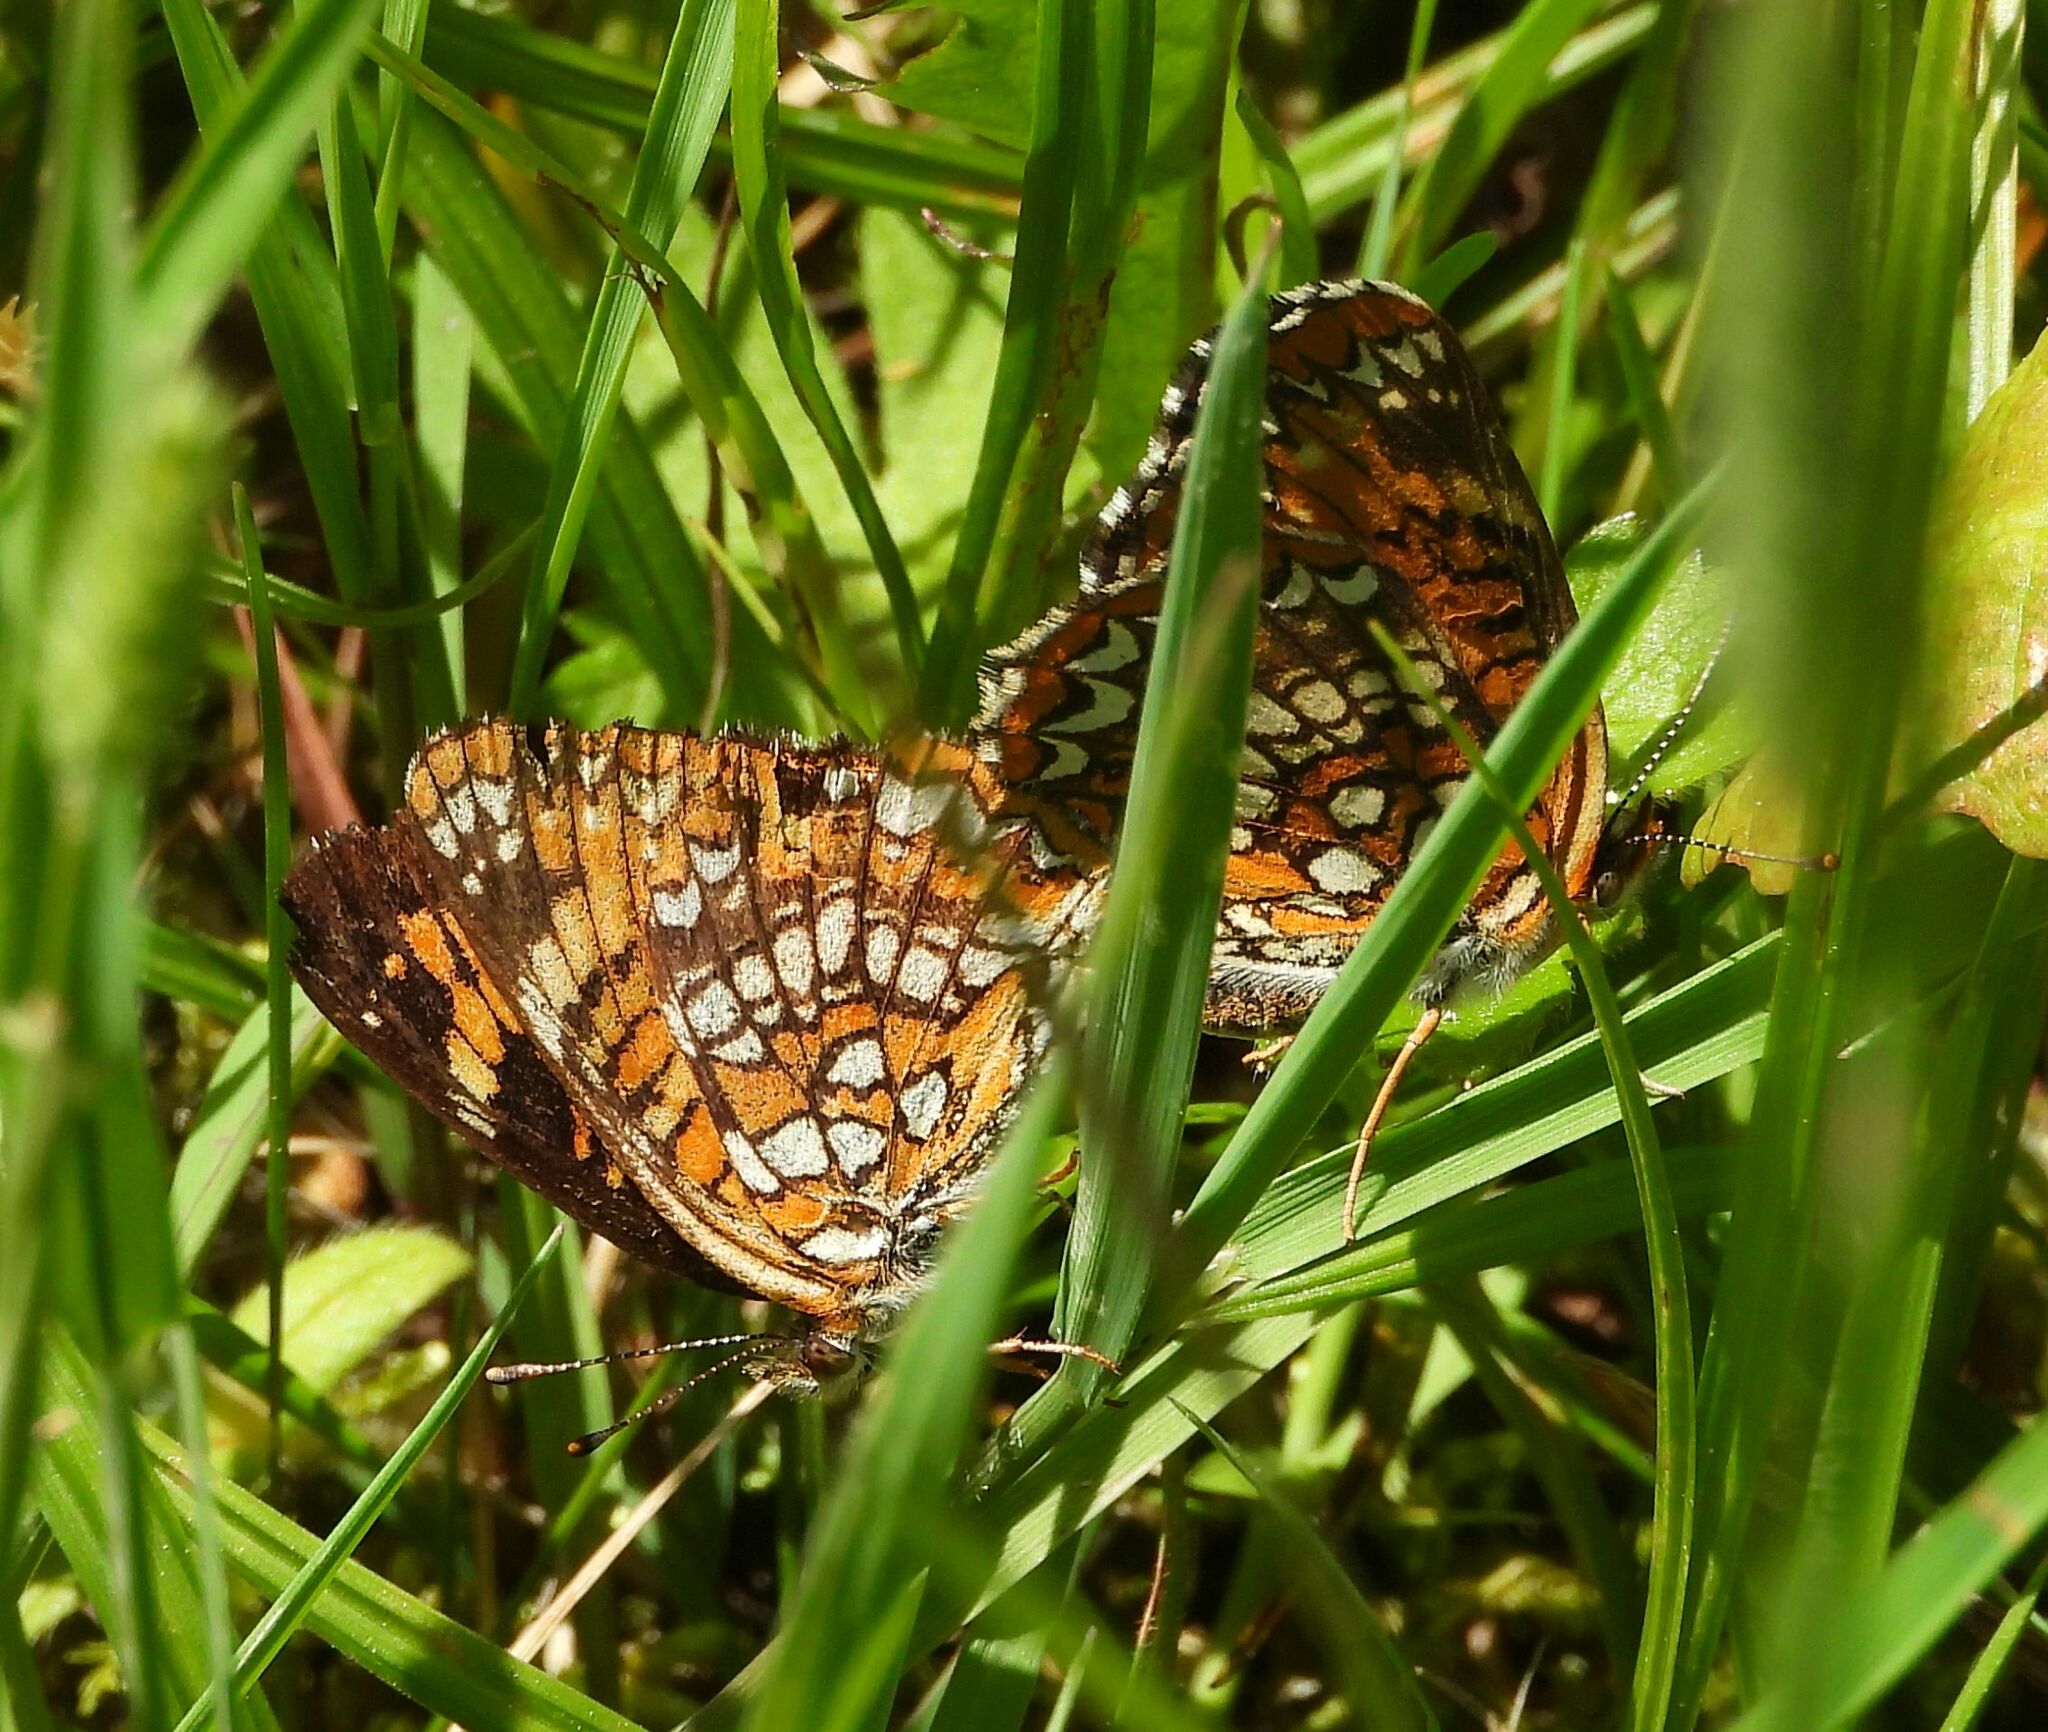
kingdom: Animalia
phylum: Arthropoda
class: Insecta
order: Lepidoptera
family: Nymphalidae
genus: Chlosyne
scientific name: Chlosyne harrisii
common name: Harris's checkerspot
